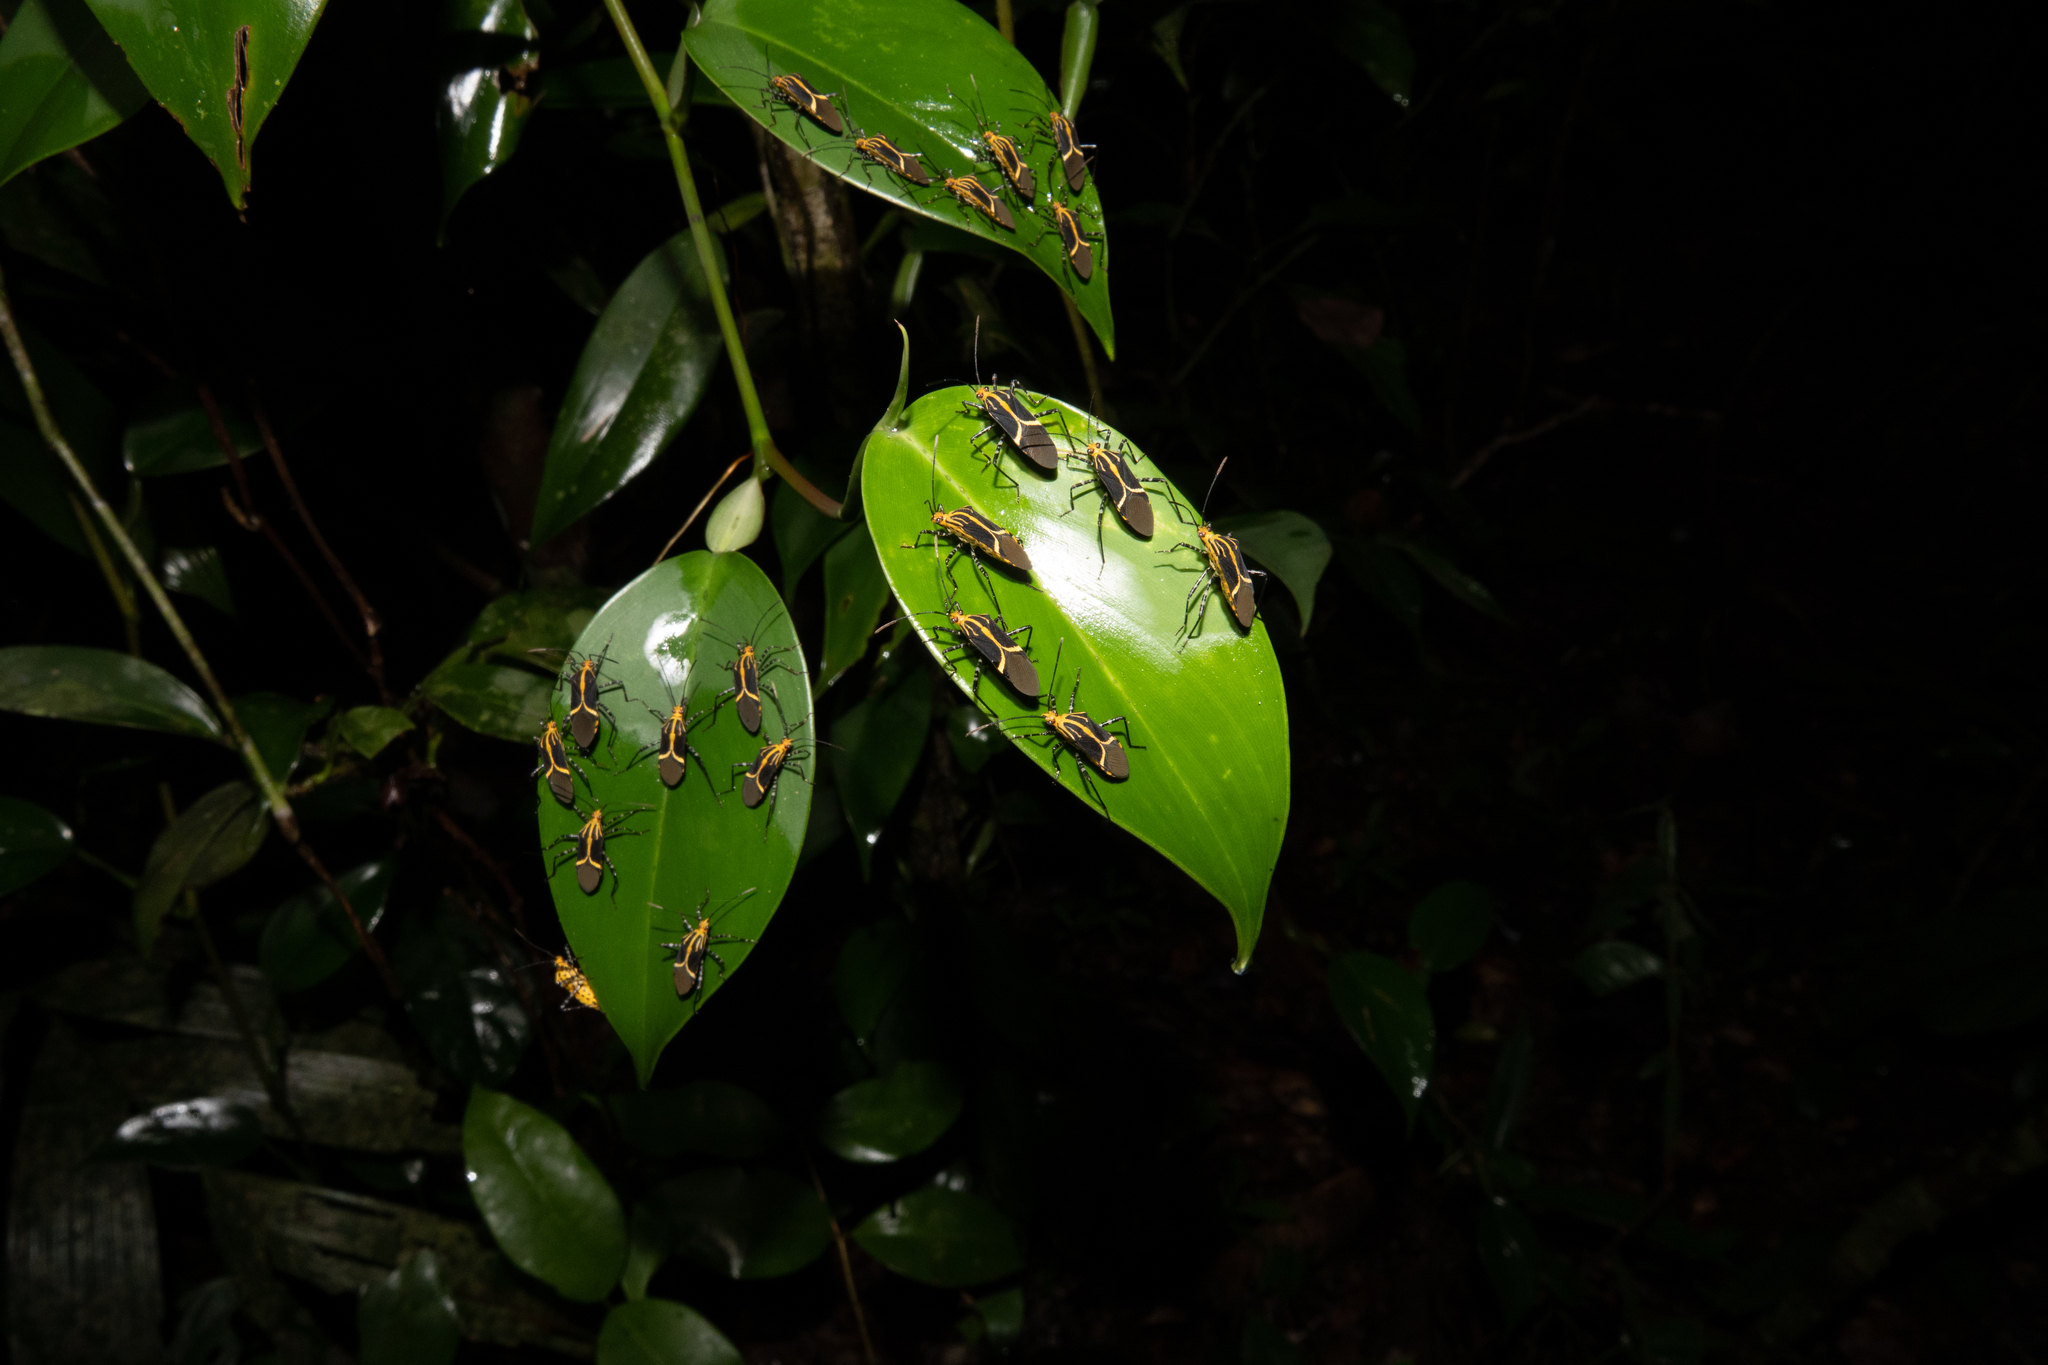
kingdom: Animalia
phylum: Arthropoda
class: Insecta
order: Hemiptera
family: Coreidae
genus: Hypselonotus
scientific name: Hypselonotus linea
